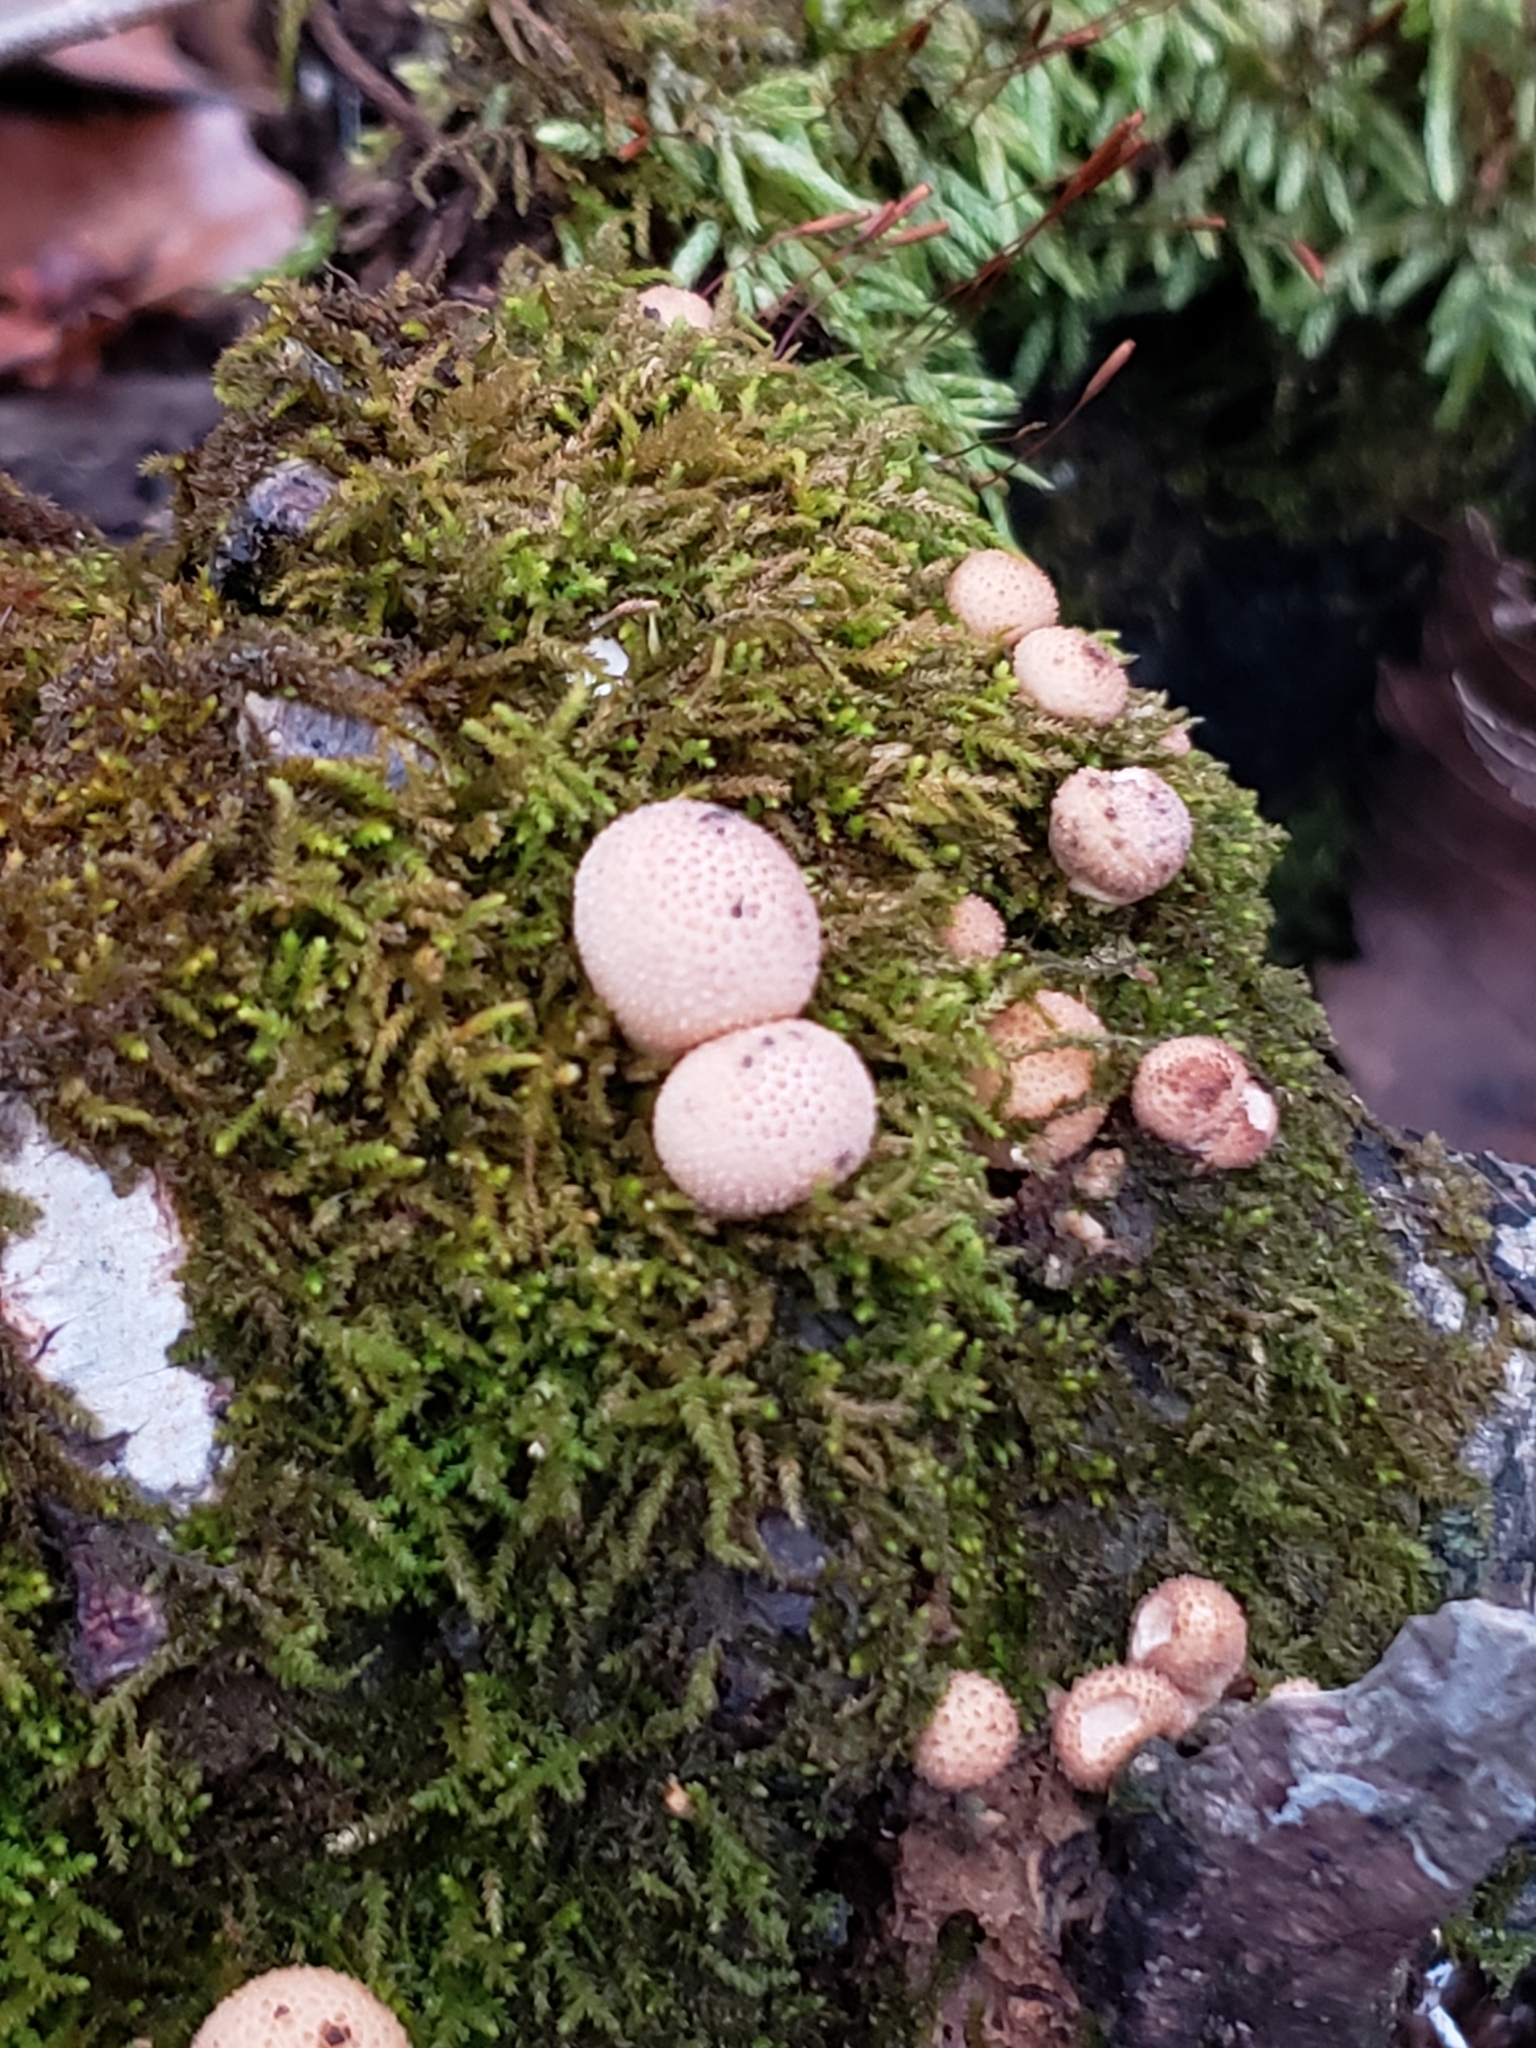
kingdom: Fungi
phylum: Basidiomycota
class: Agaricomycetes
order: Agaricales
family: Lycoperdaceae
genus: Apioperdon
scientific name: Apioperdon pyriforme
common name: Pear-shaped puffball
